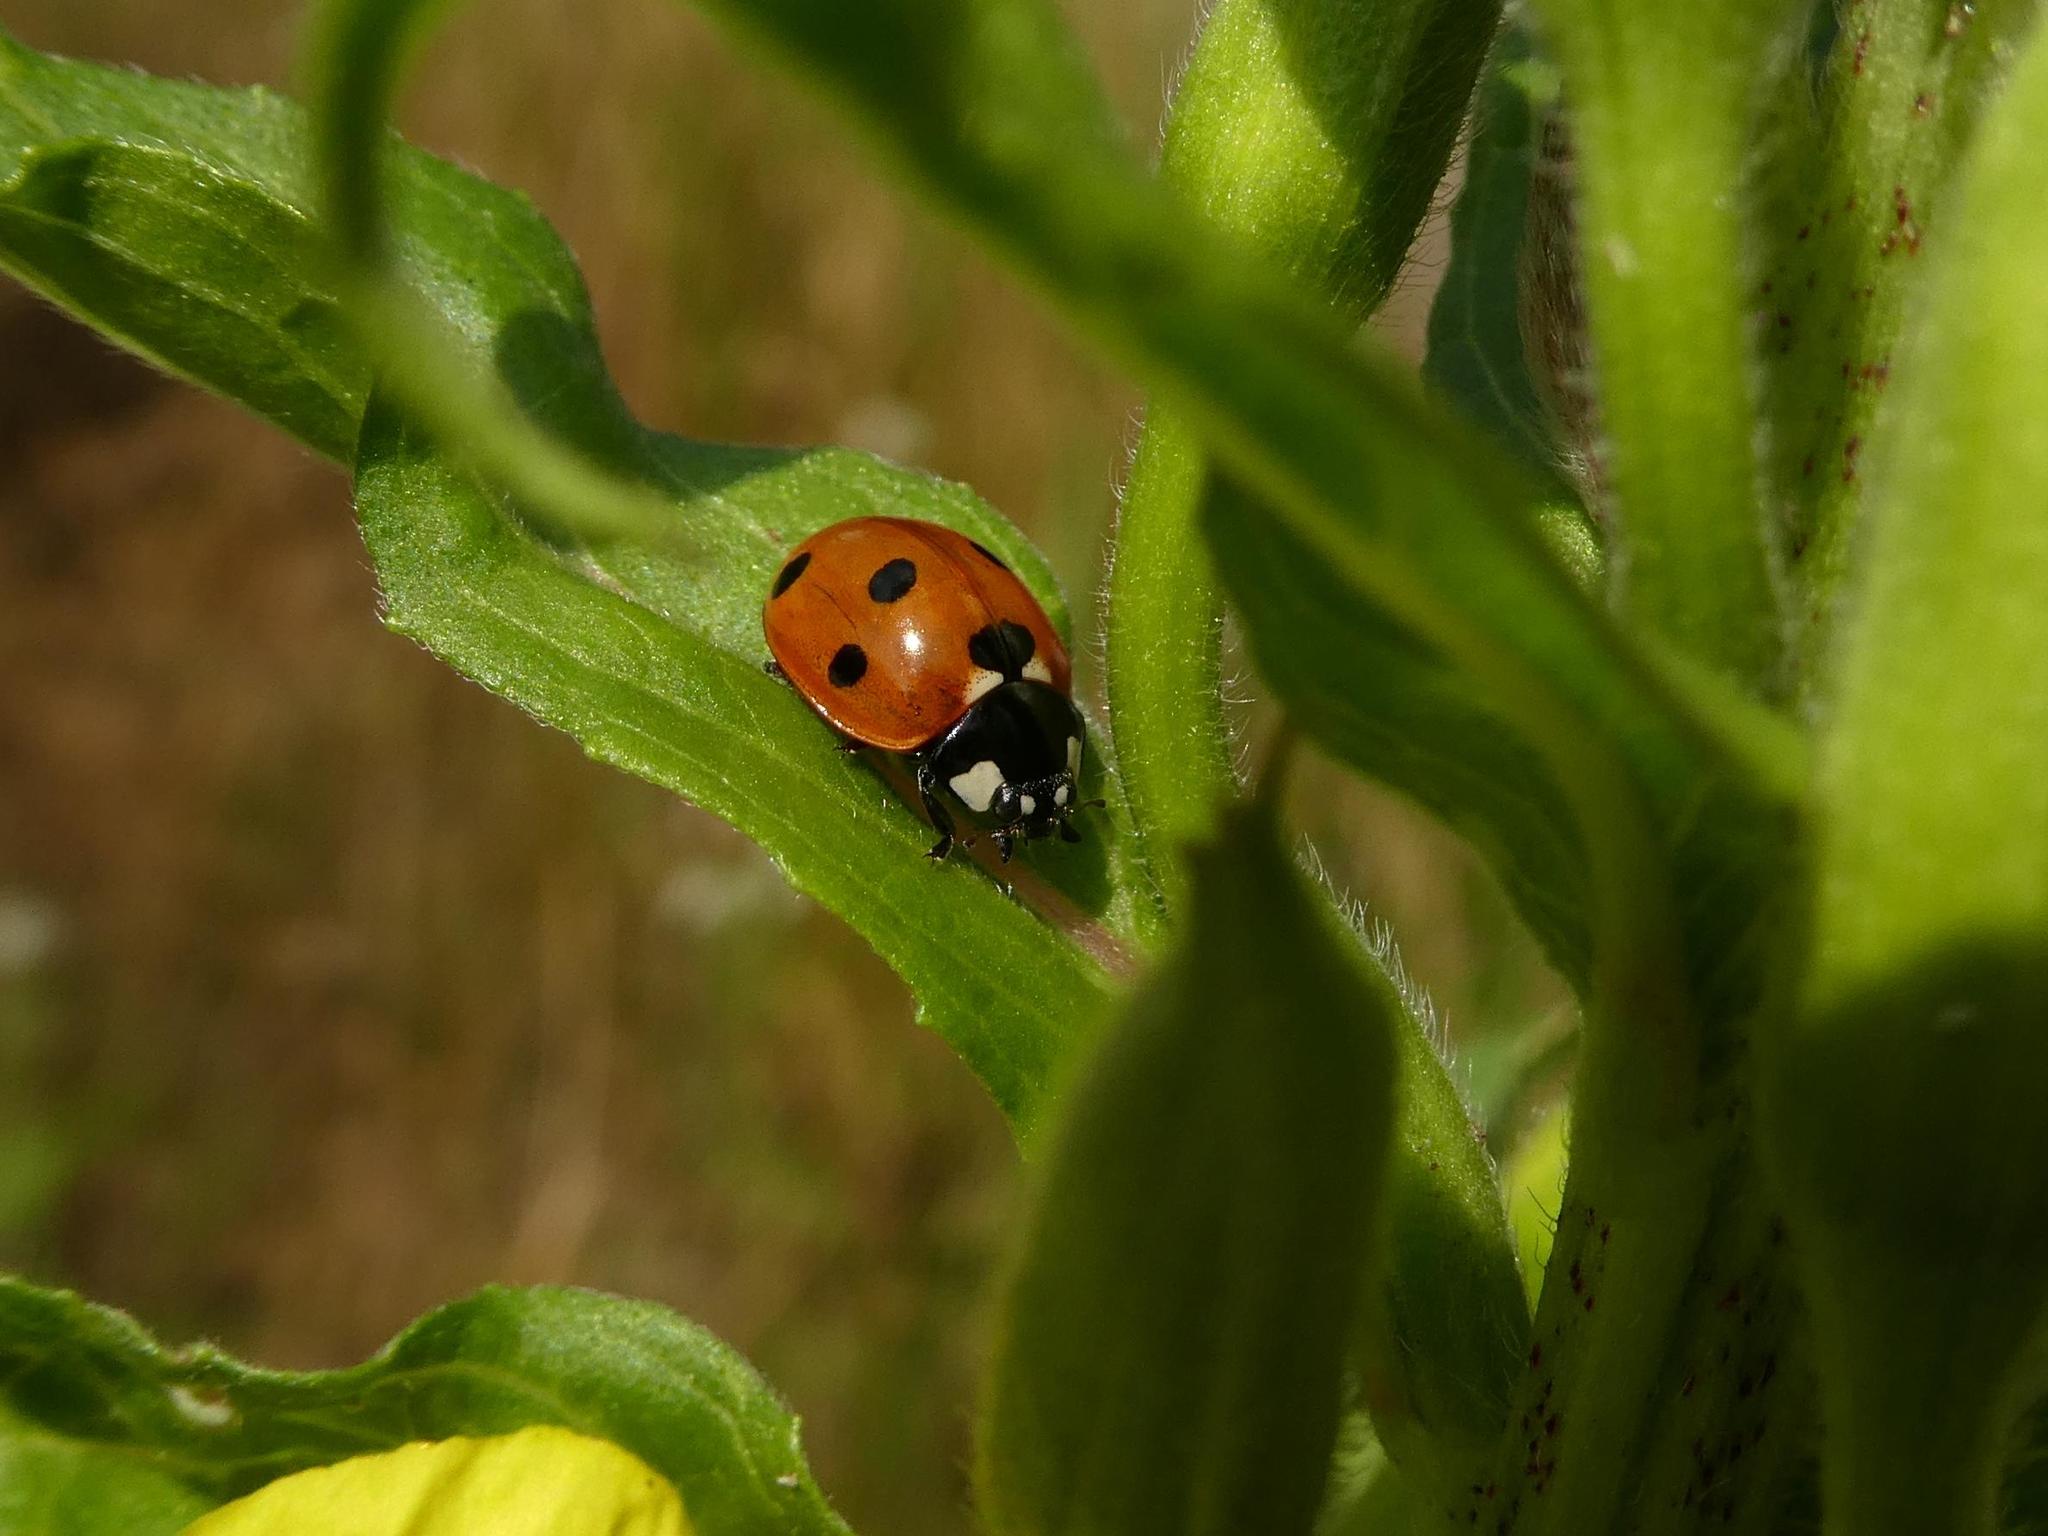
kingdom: Animalia
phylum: Arthropoda
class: Insecta
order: Coleoptera
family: Coccinellidae
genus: Coccinella
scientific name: Coccinella septempunctata
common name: Sevenspotted lady beetle
